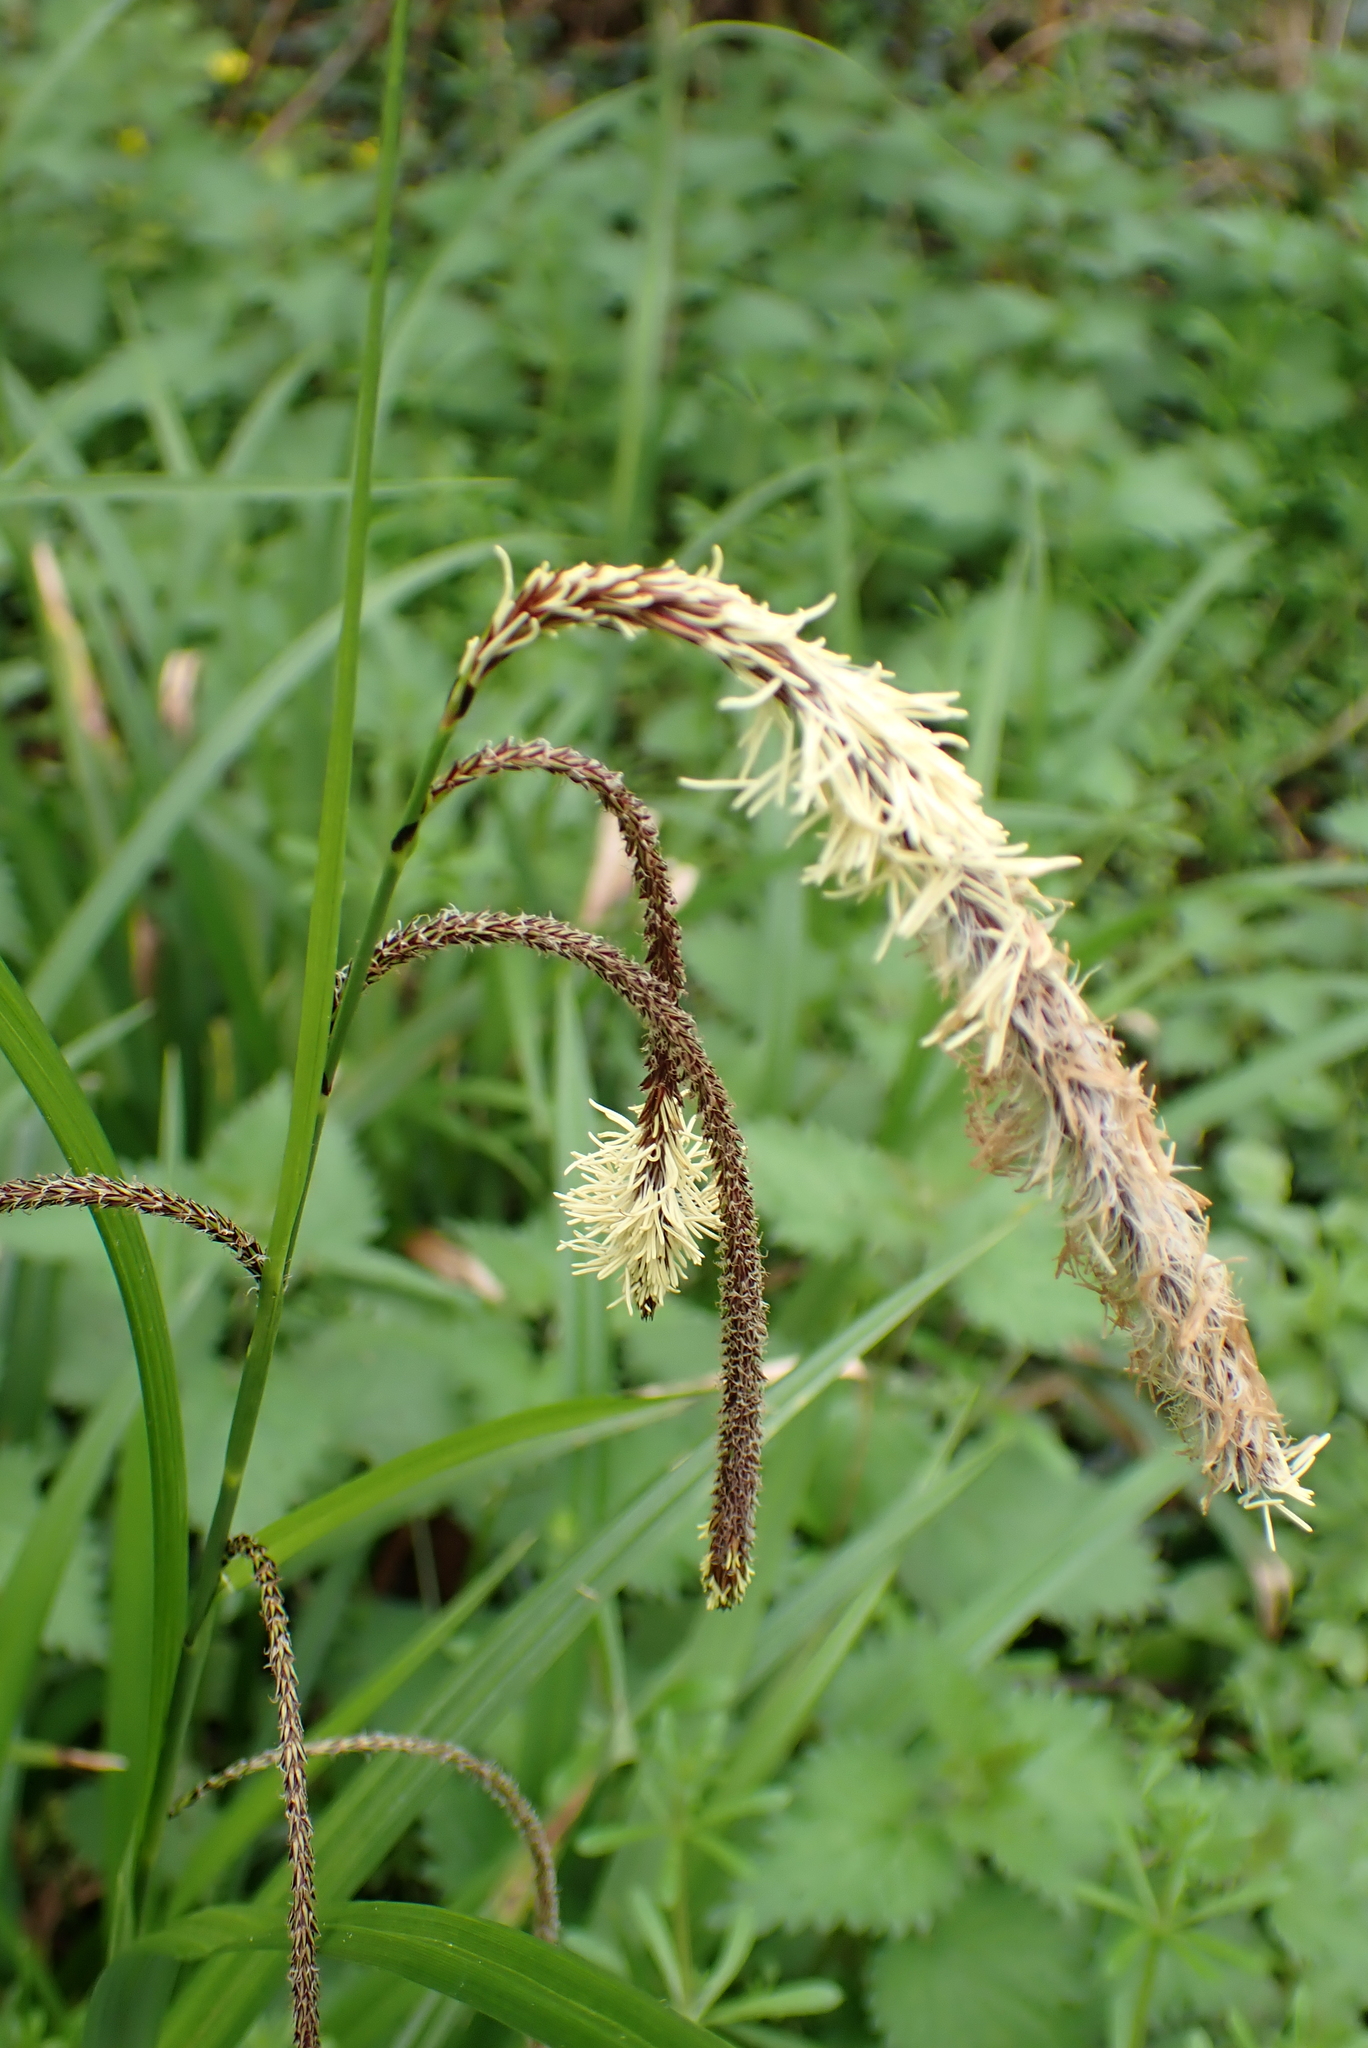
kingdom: Plantae
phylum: Tracheophyta
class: Liliopsida
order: Poales
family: Cyperaceae
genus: Carex
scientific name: Carex pendula
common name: Pendulous sedge
